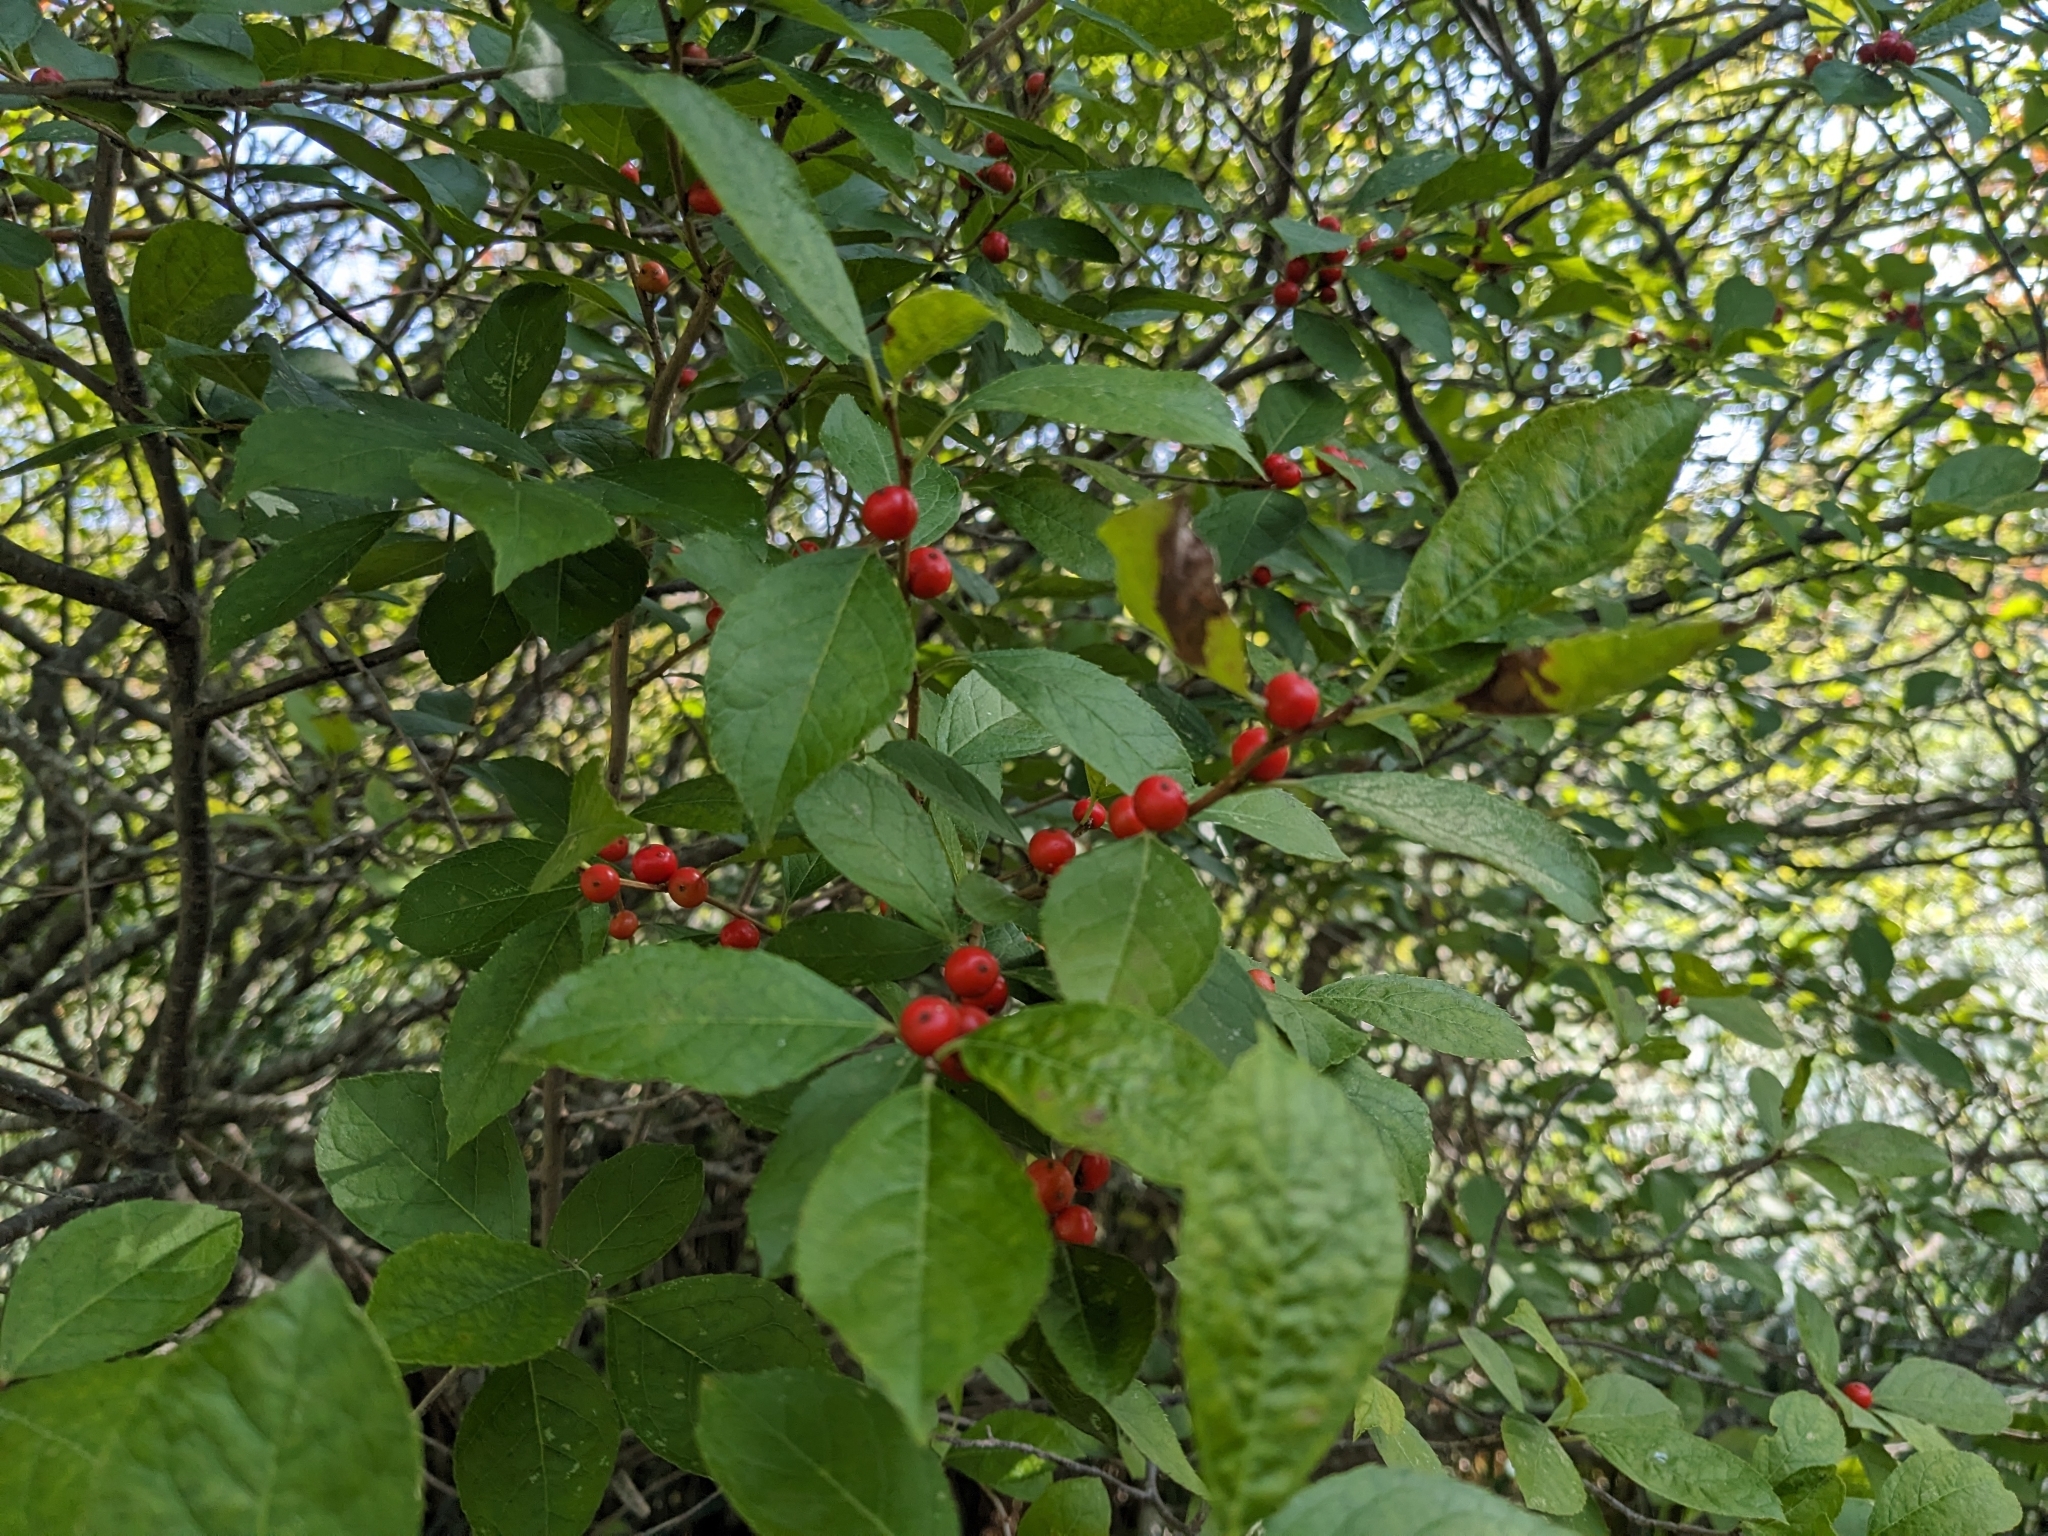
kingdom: Plantae
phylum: Tracheophyta
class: Magnoliopsida
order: Aquifoliales
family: Aquifoliaceae
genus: Ilex
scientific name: Ilex verticillata
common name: Virginia winterberry
